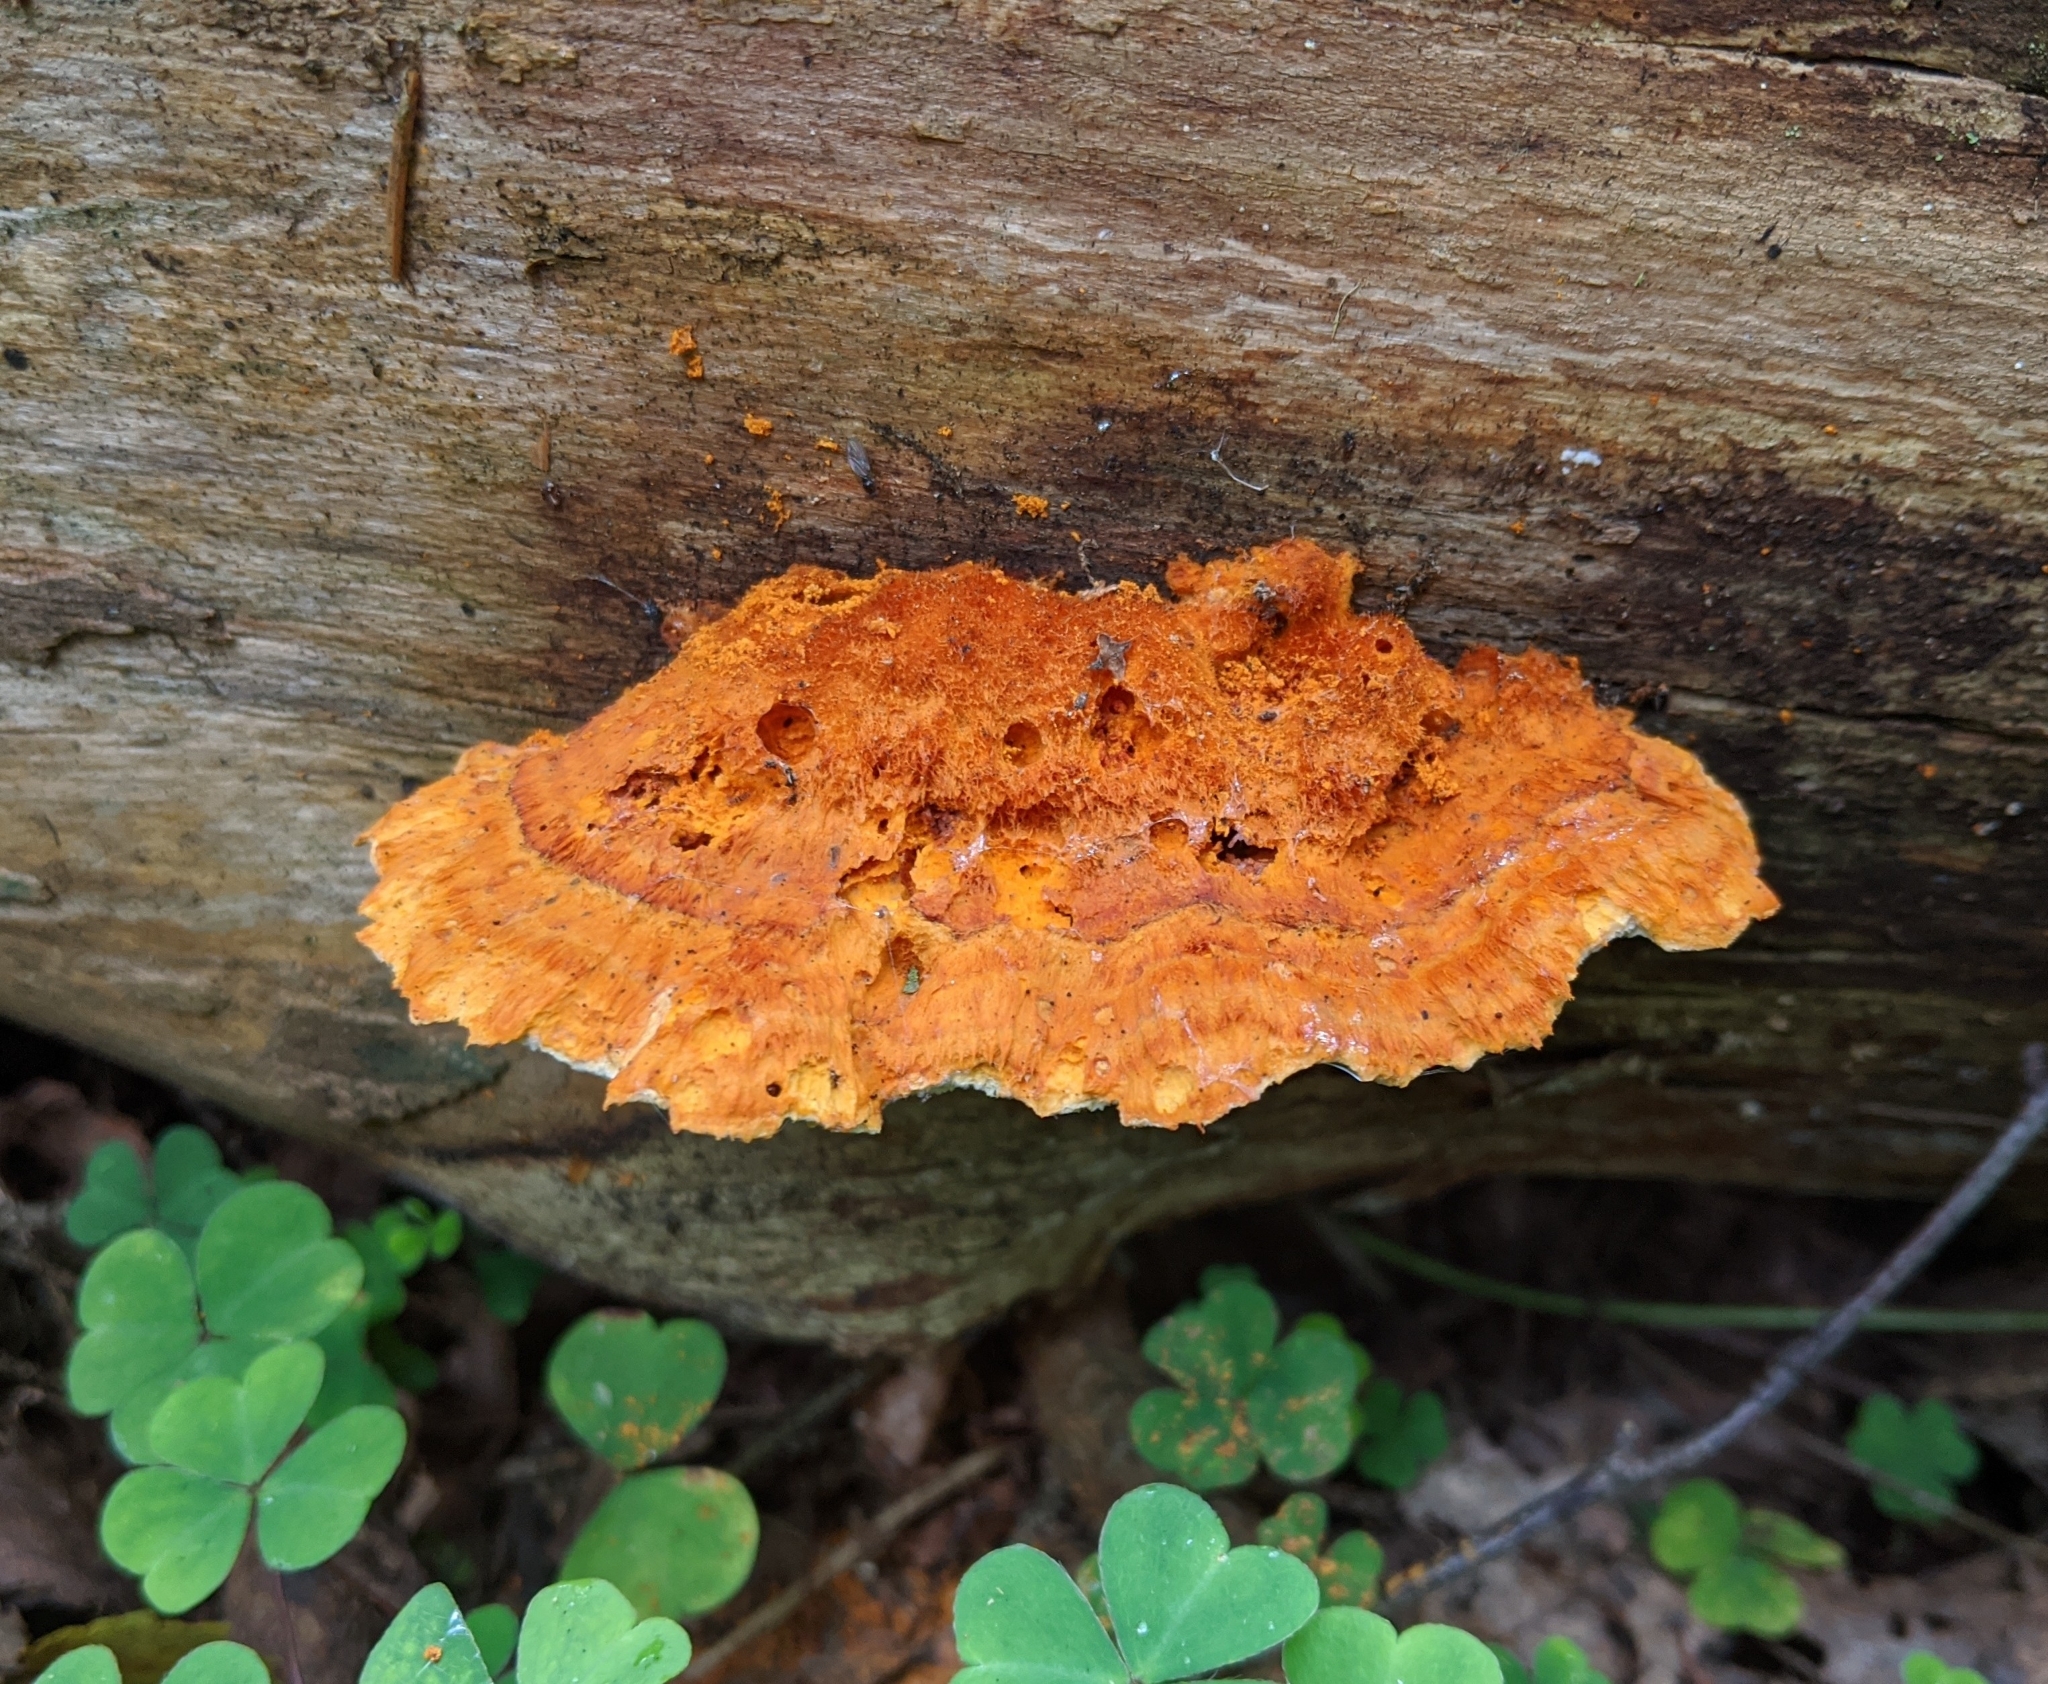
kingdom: Fungi
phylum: Basidiomycota
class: Agaricomycetes
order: Polyporales
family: Pycnoporellaceae
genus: Pycnoporellus
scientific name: Pycnoporellus fulgens
